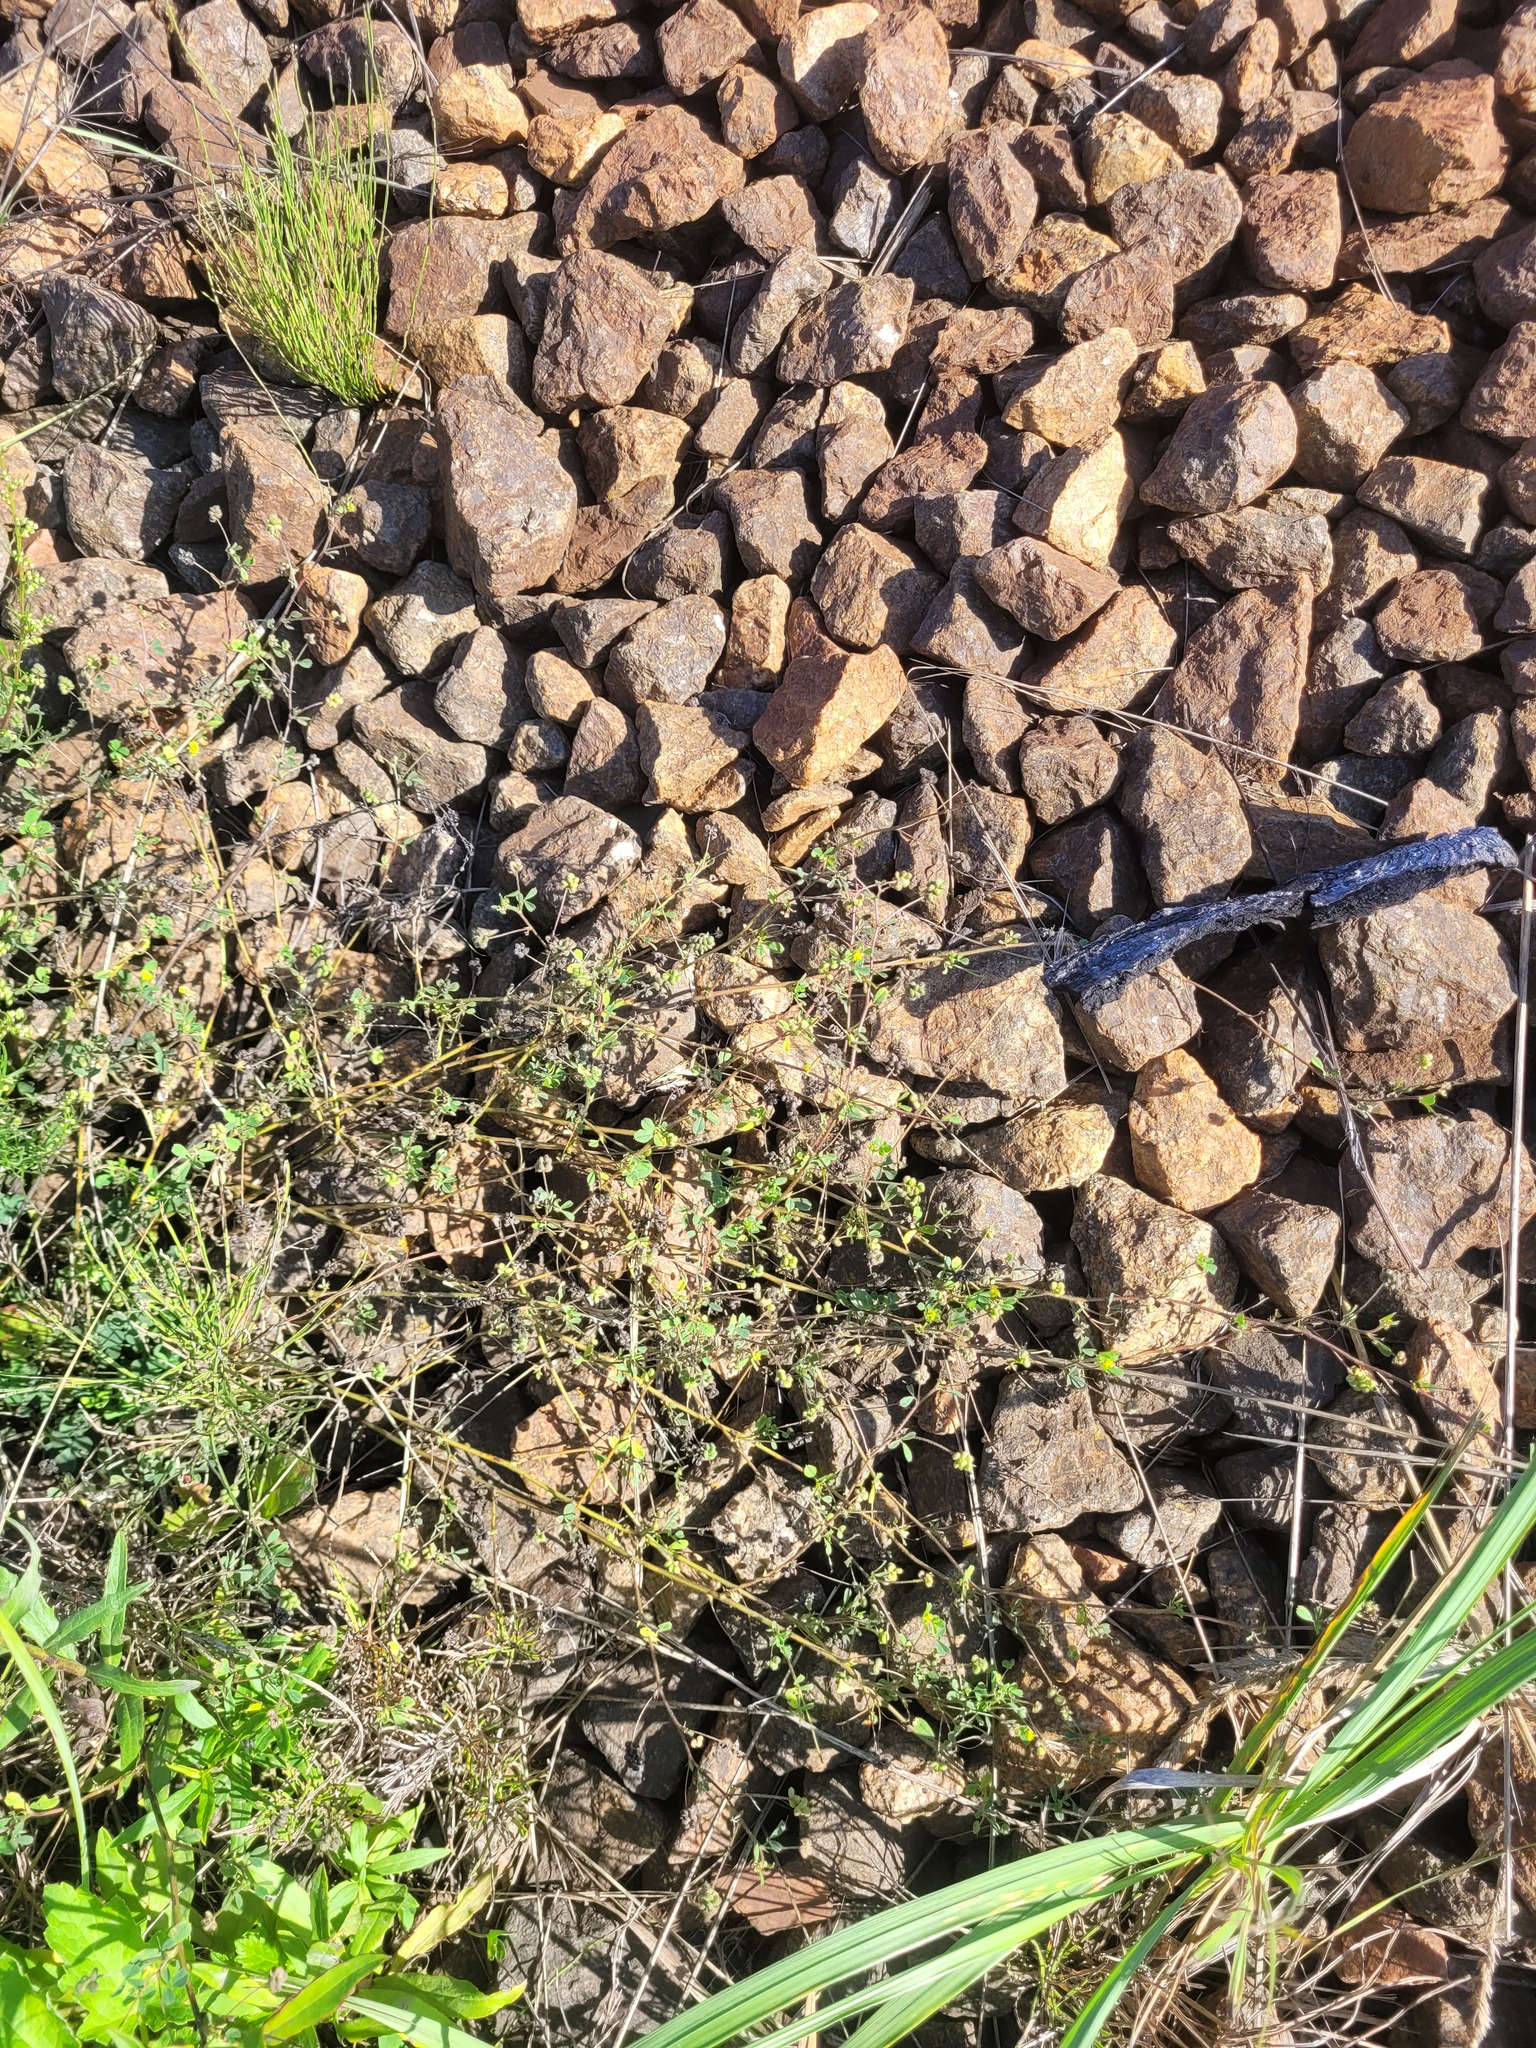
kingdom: Plantae
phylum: Tracheophyta
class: Magnoliopsida
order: Fabales
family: Fabaceae
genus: Medicago
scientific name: Medicago lupulina
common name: Black medick
